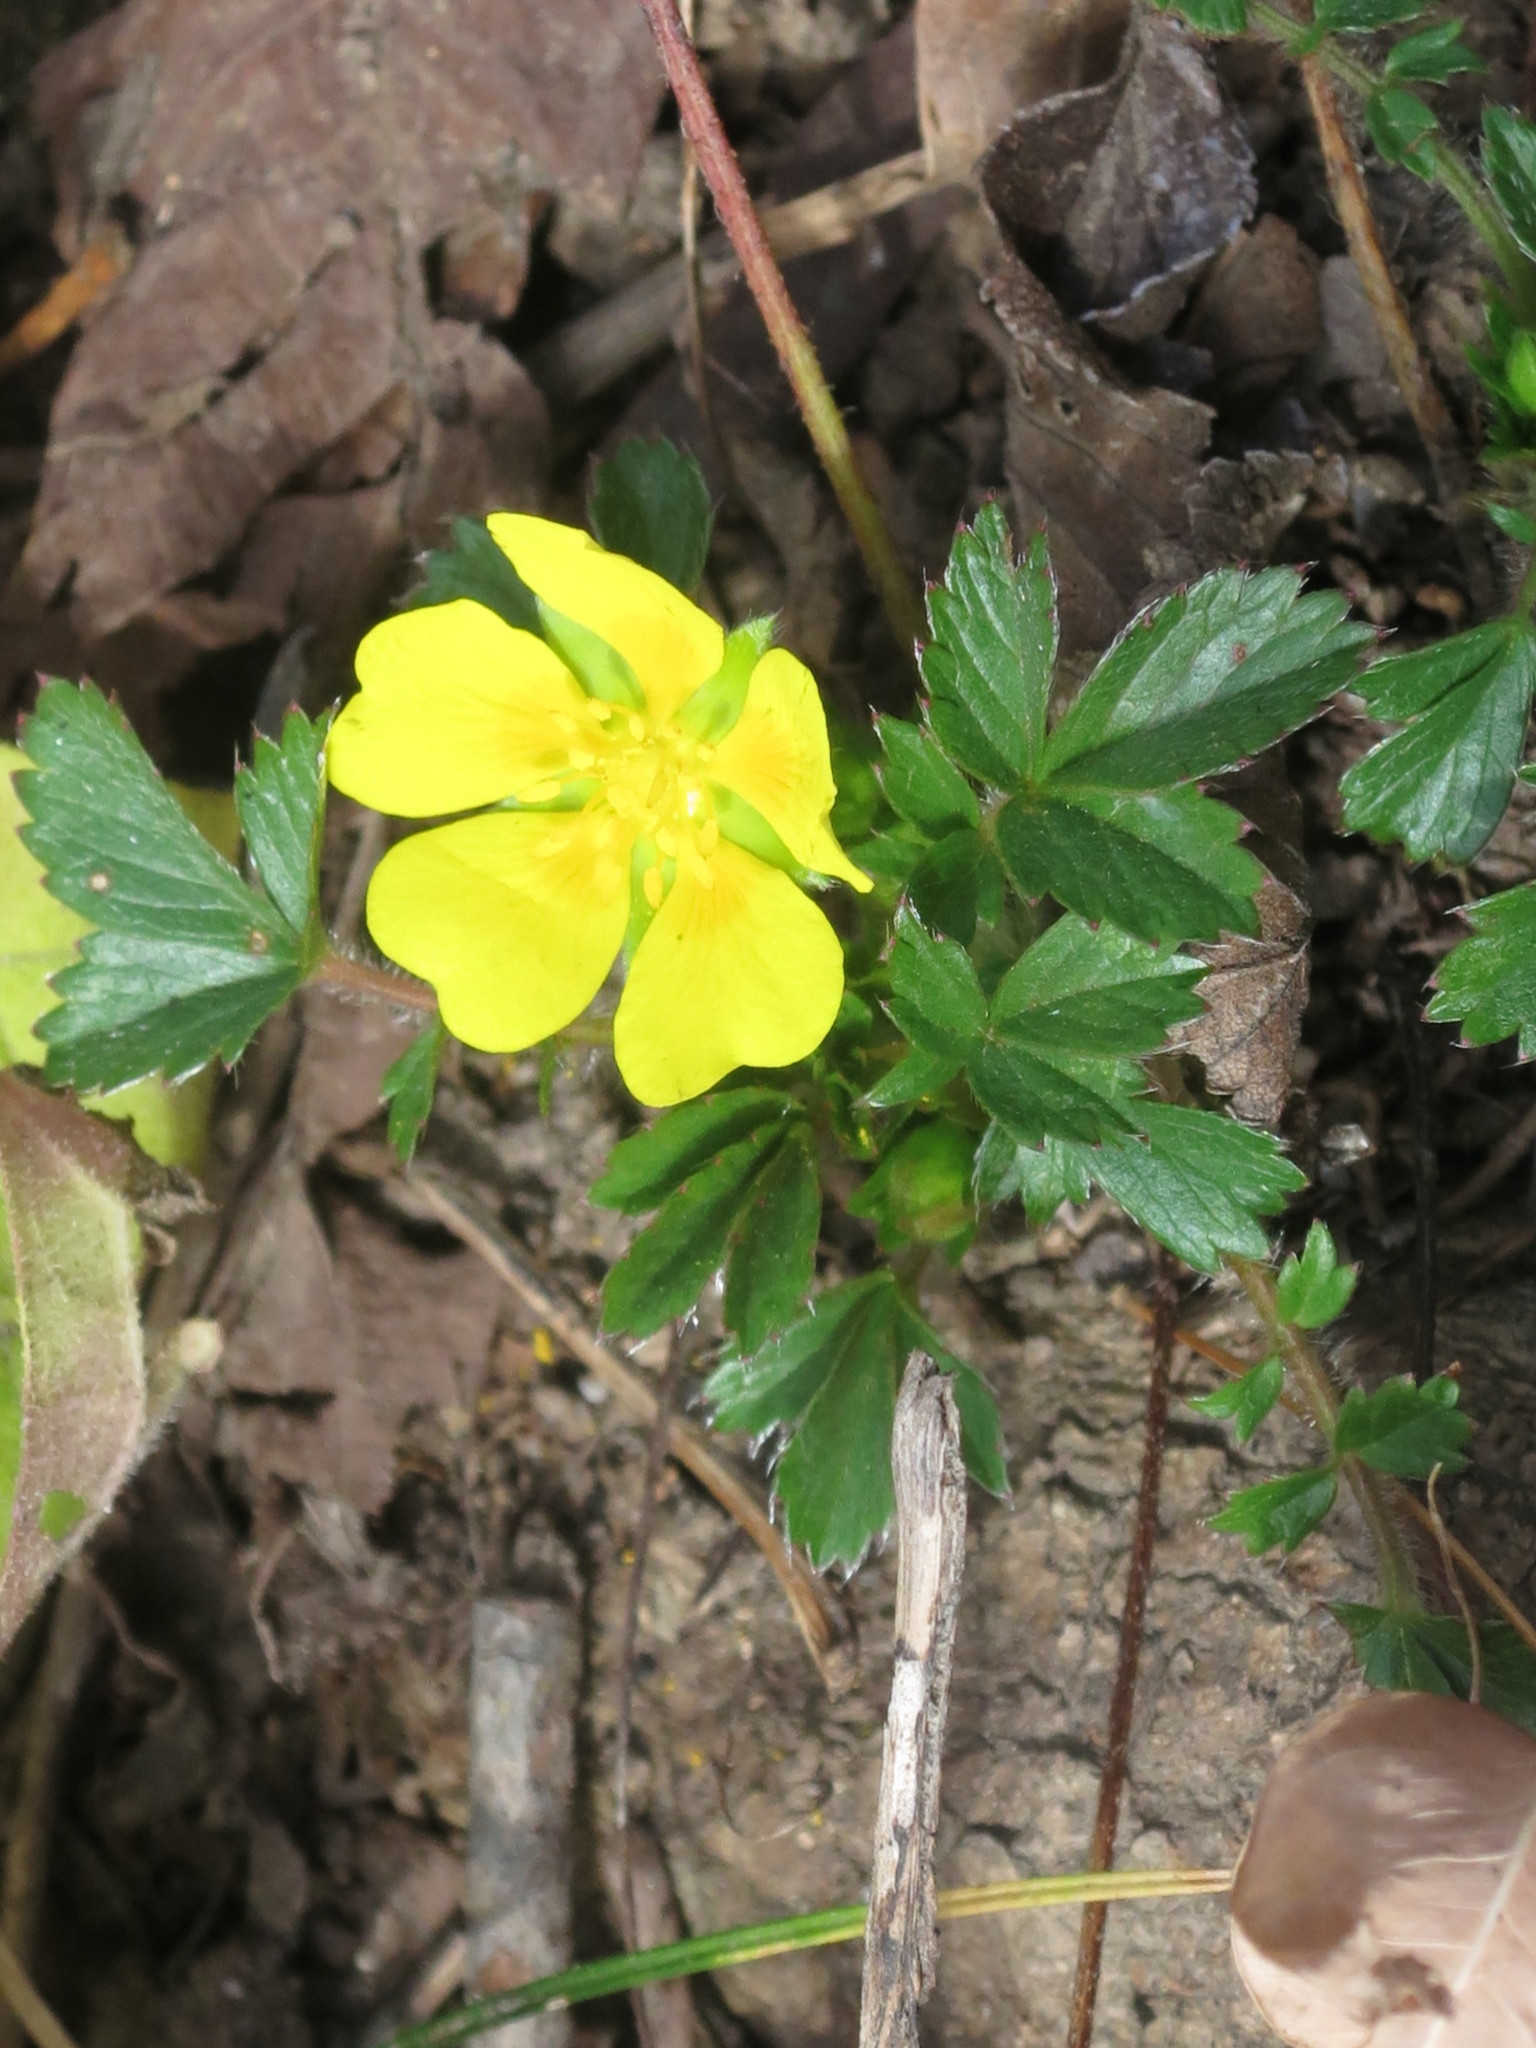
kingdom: Plantae
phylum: Tracheophyta
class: Magnoliopsida
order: Rosales
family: Rosaceae
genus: Potentilla
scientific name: Potentilla fragarioides
